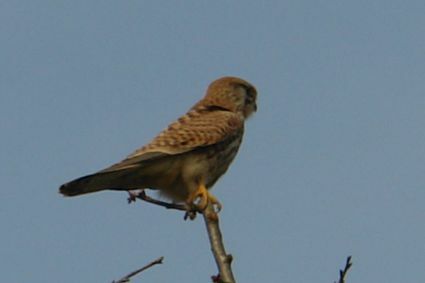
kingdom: Animalia
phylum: Chordata
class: Aves
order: Falconiformes
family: Falconidae
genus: Falco
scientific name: Falco tinnunculus
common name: Common kestrel
